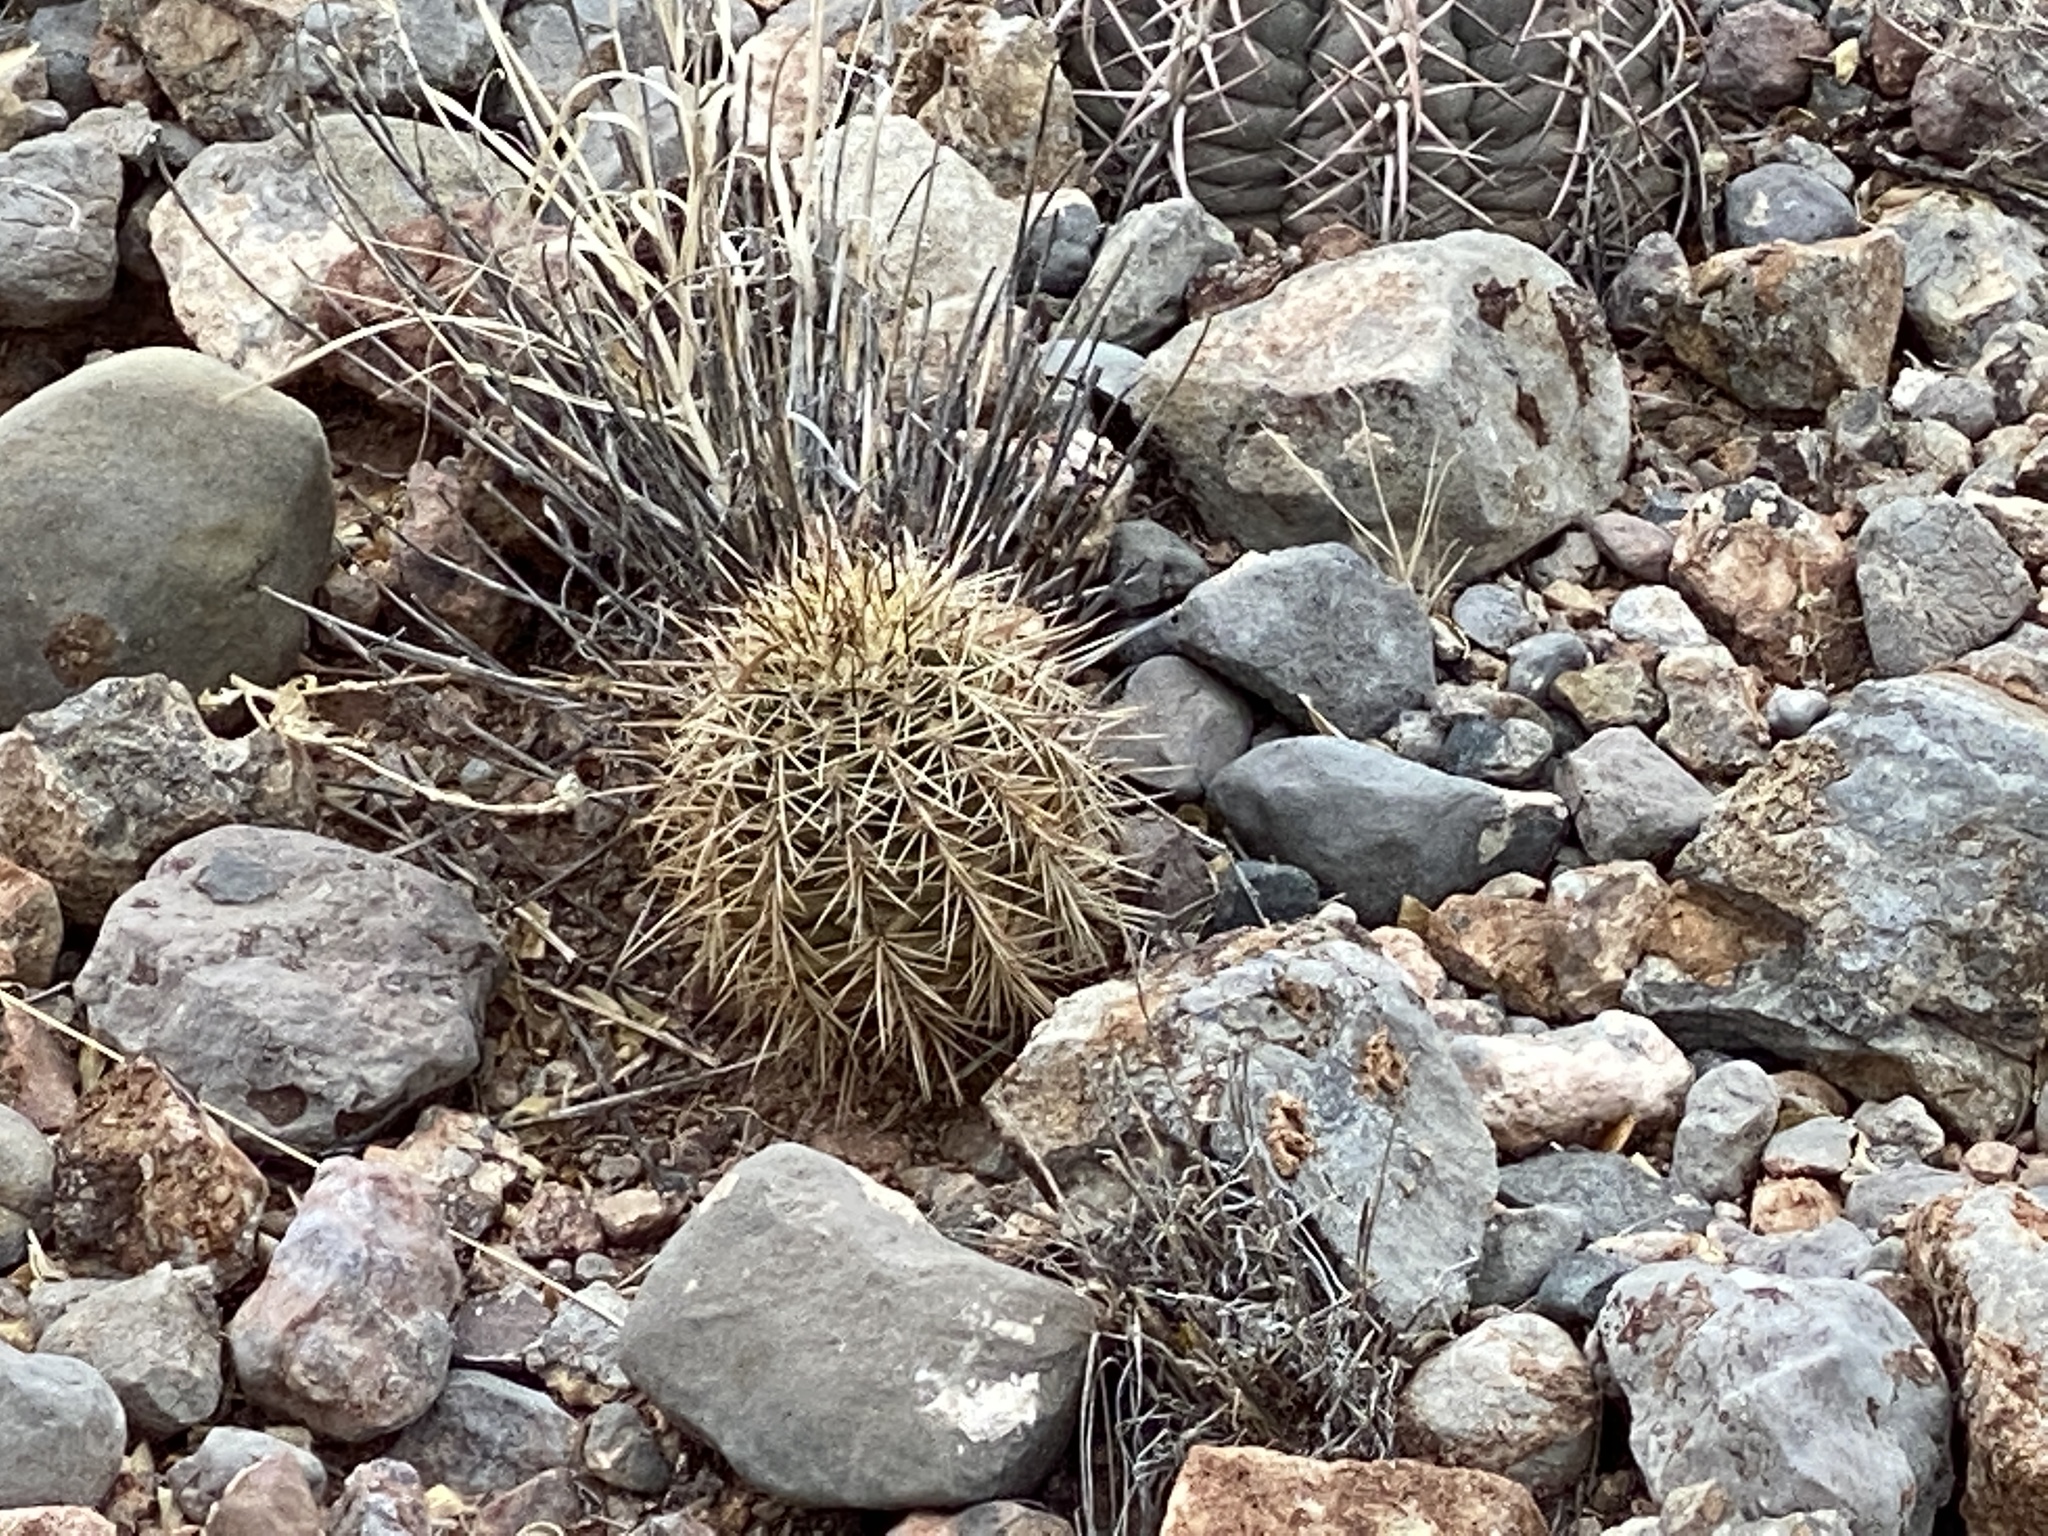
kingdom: Plantae
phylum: Tracheophyta
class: Magnoliopsida
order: Caryophyllales
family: Cactaceae
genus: Echinocereus
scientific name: Echinocereus coccineus
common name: Scarlet hedgehog cactus
